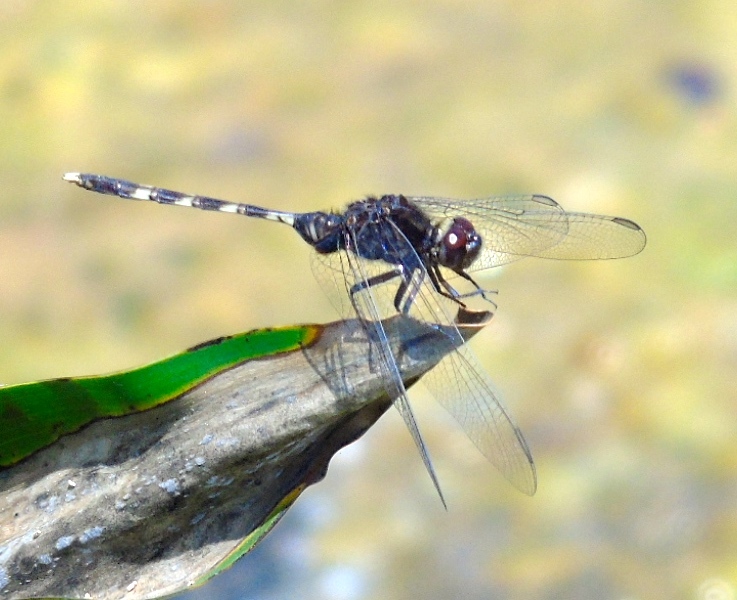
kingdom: Animalia
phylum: Arthropoda
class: Insecta
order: Odonata
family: Libellulidae
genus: Erythemis
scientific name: Erythemis plebeja
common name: Pin-tailed pondhawk
